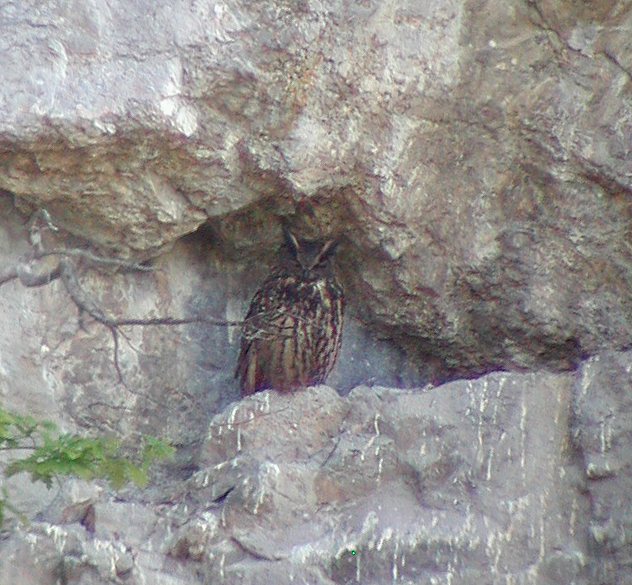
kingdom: Animalia
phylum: Chordata
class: Aves
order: Strigiformes
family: Strigidae
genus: Bubo
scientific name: Bubo bubo
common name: Eurasian eagle-owl
